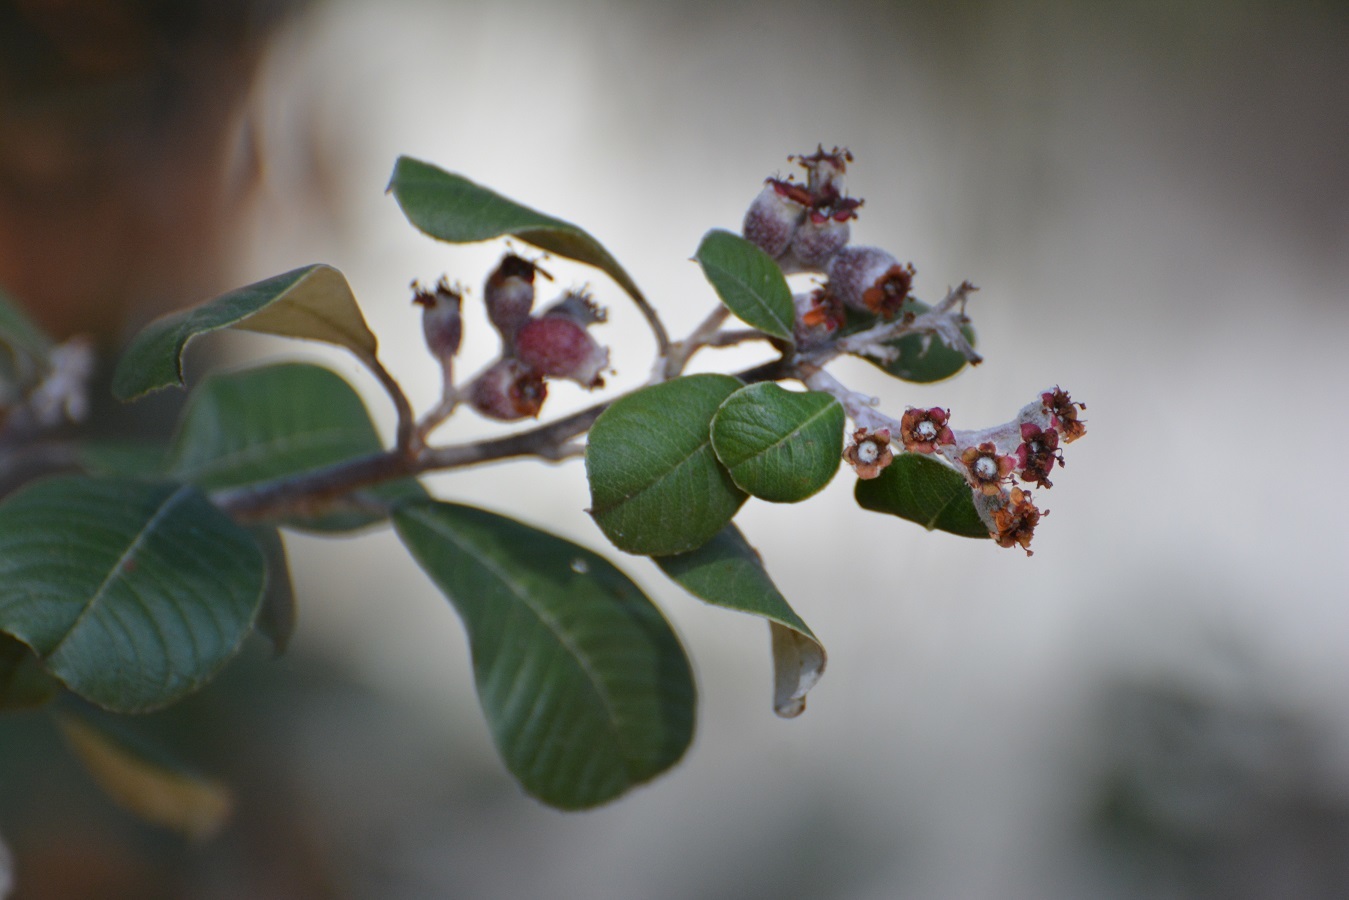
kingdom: Plantae
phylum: Tracheophyta
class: Magnoliopsida
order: Rosales
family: Rosaceae
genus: Malacomeles
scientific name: Malacomeles nervosa
